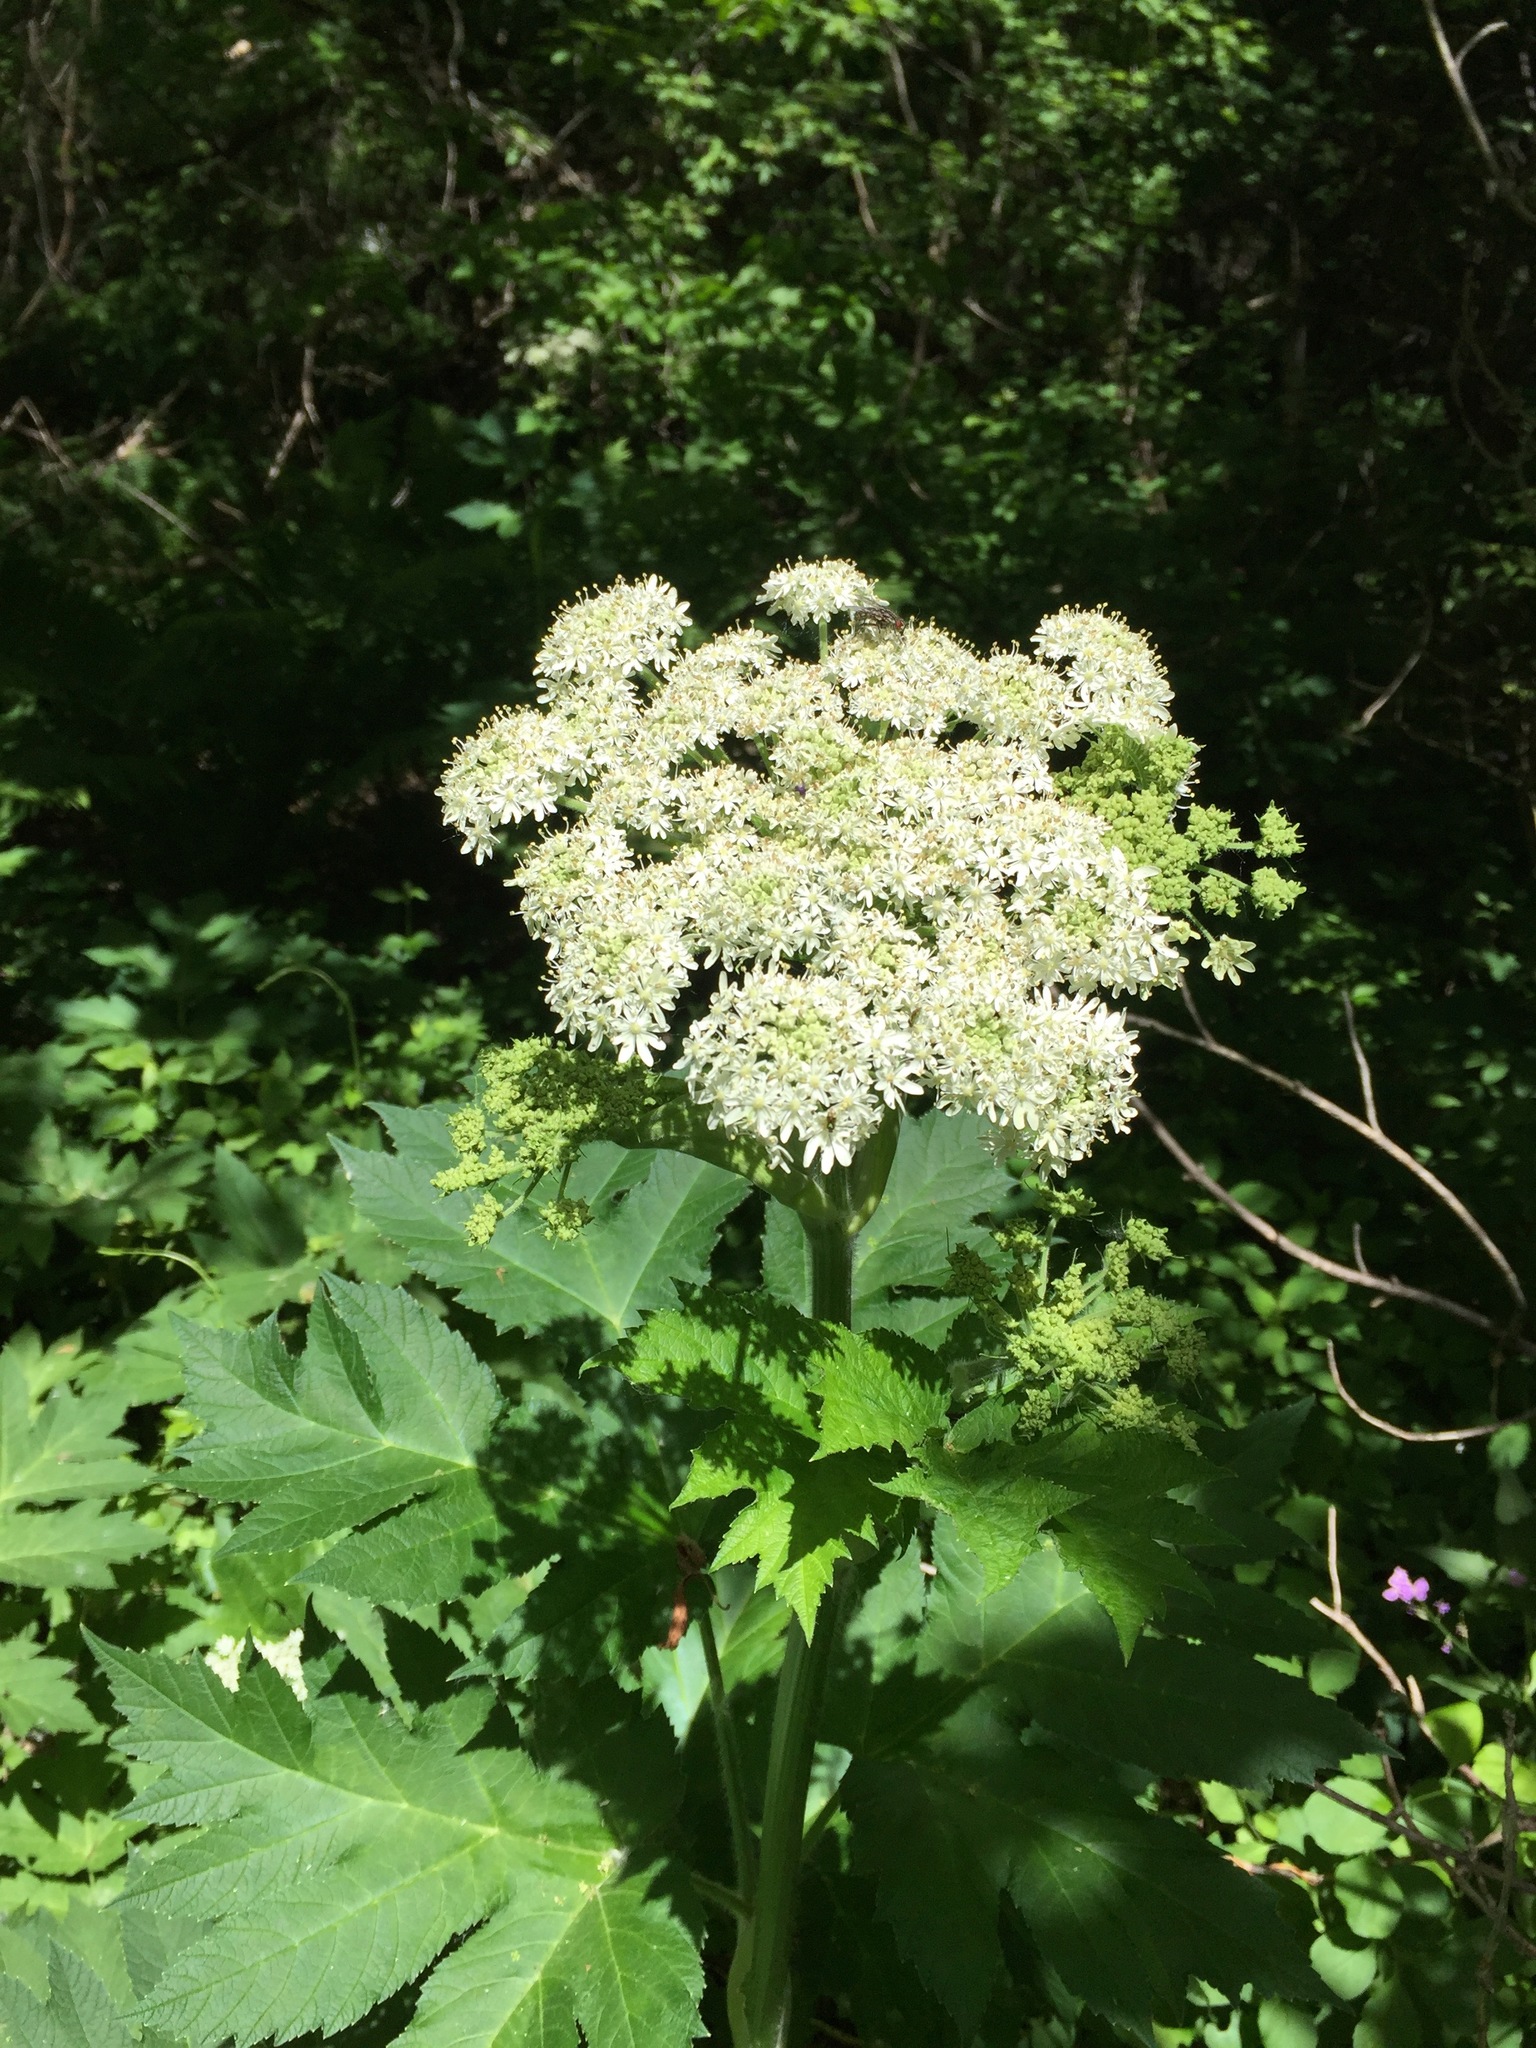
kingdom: Plantae
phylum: Tracheophyta
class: Magnoliopsida
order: Apiales
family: Apiaceae
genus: Heracleum
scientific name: Heracleum maximum
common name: American cow parsnip
